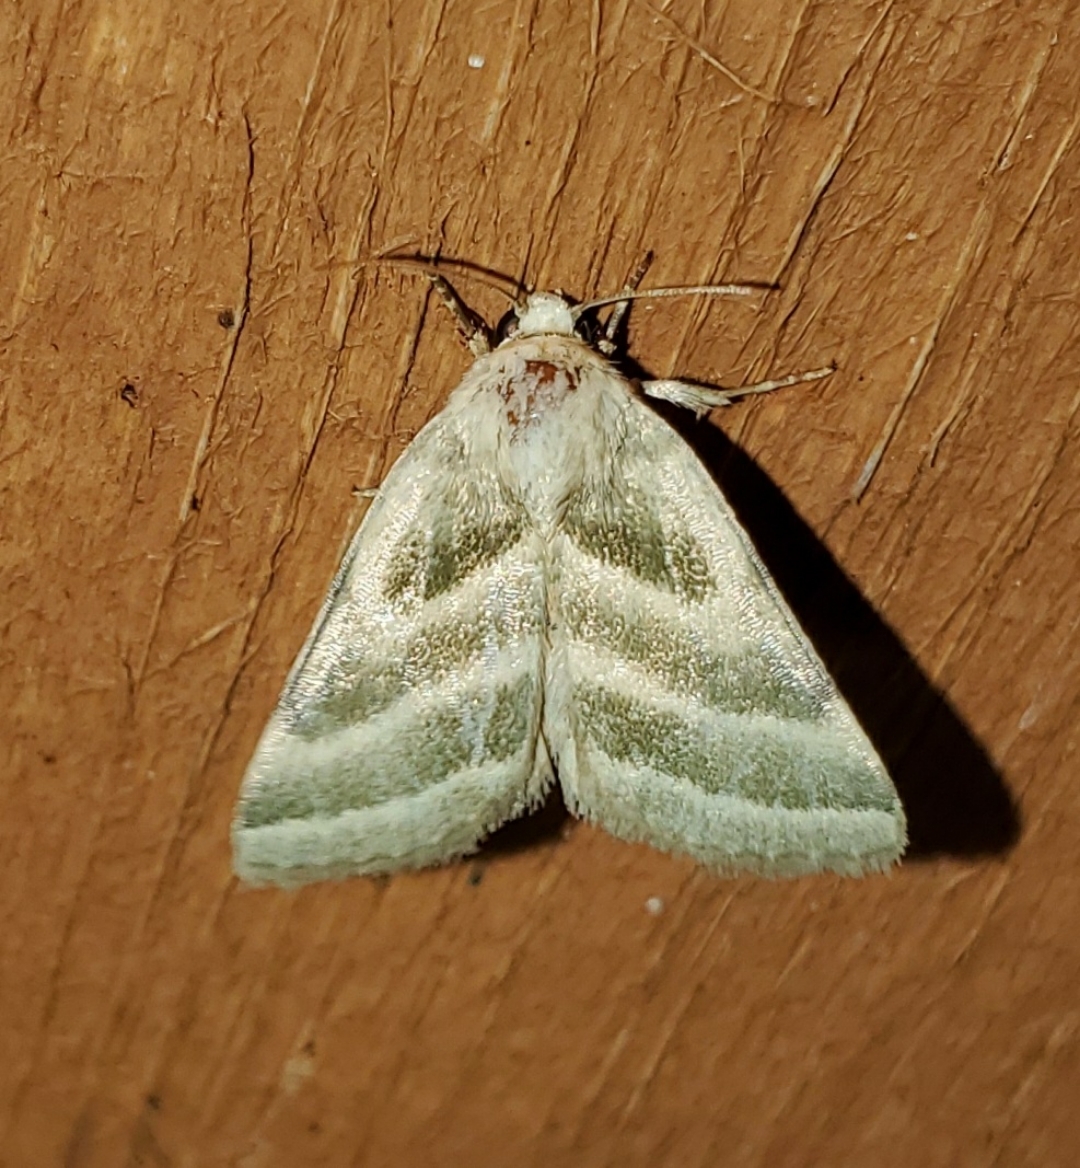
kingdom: Animalia
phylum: Arthropoda
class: Insecta
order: Lepidoptera
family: Noctuidae
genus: Schinia
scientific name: Schinia trifascia
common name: Three-lined flower moth
